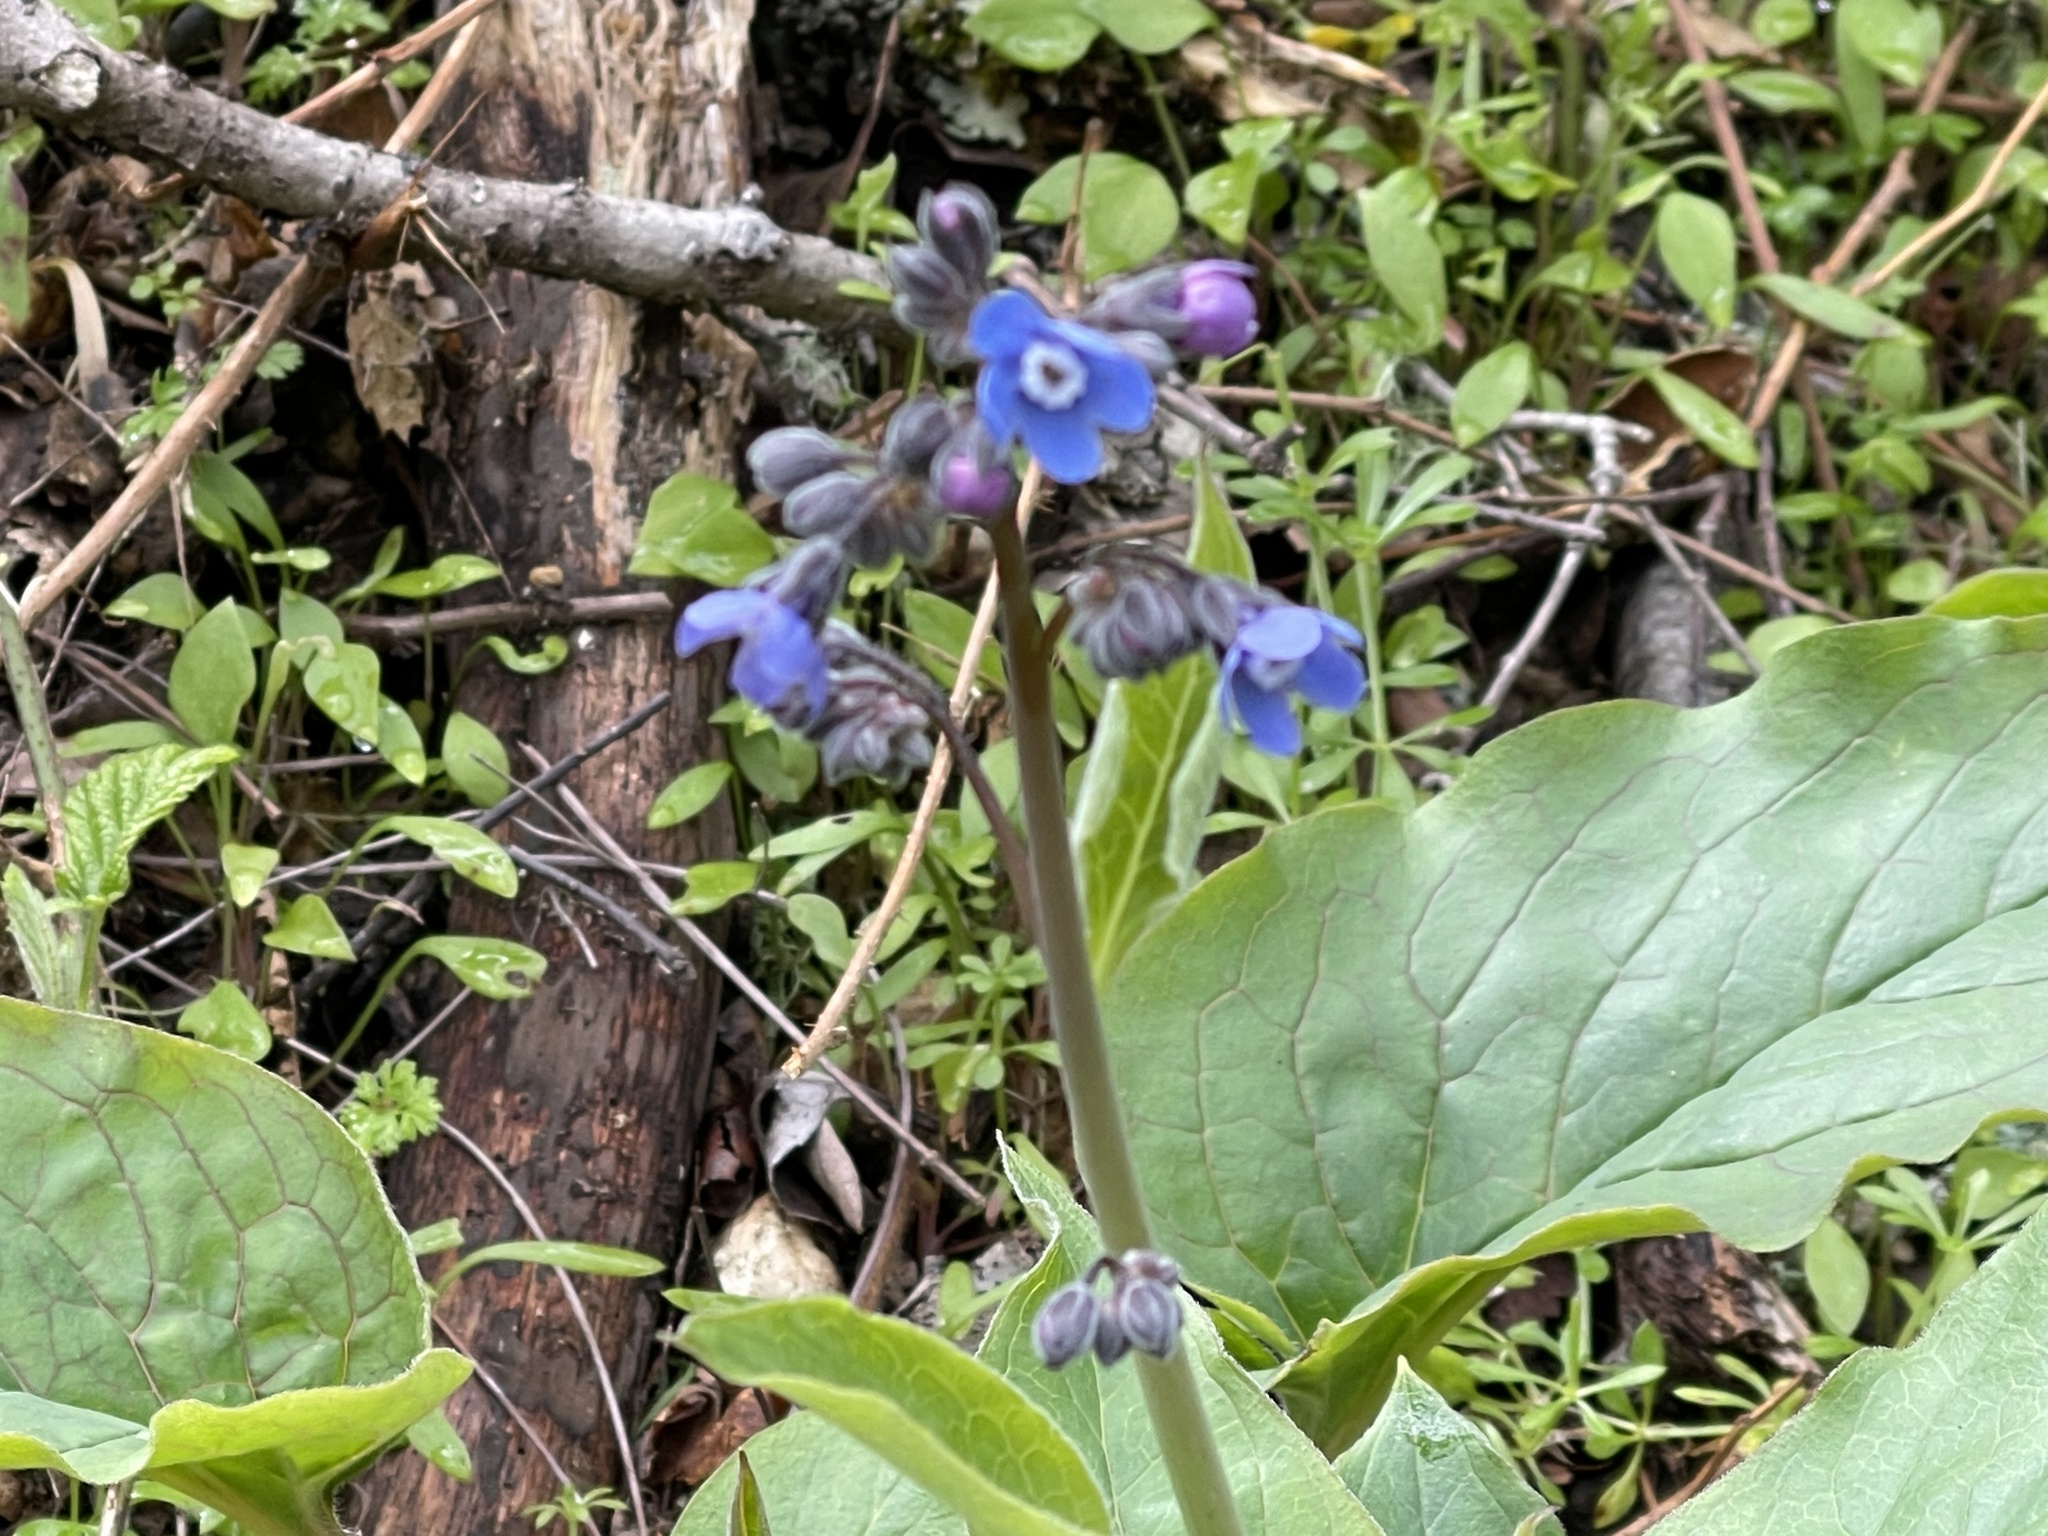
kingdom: Plantae
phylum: Tracheophyta
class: Magnoliopsida
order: Boraginales
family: Boraginaceae
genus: Adelinia
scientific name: Adelinia grande
